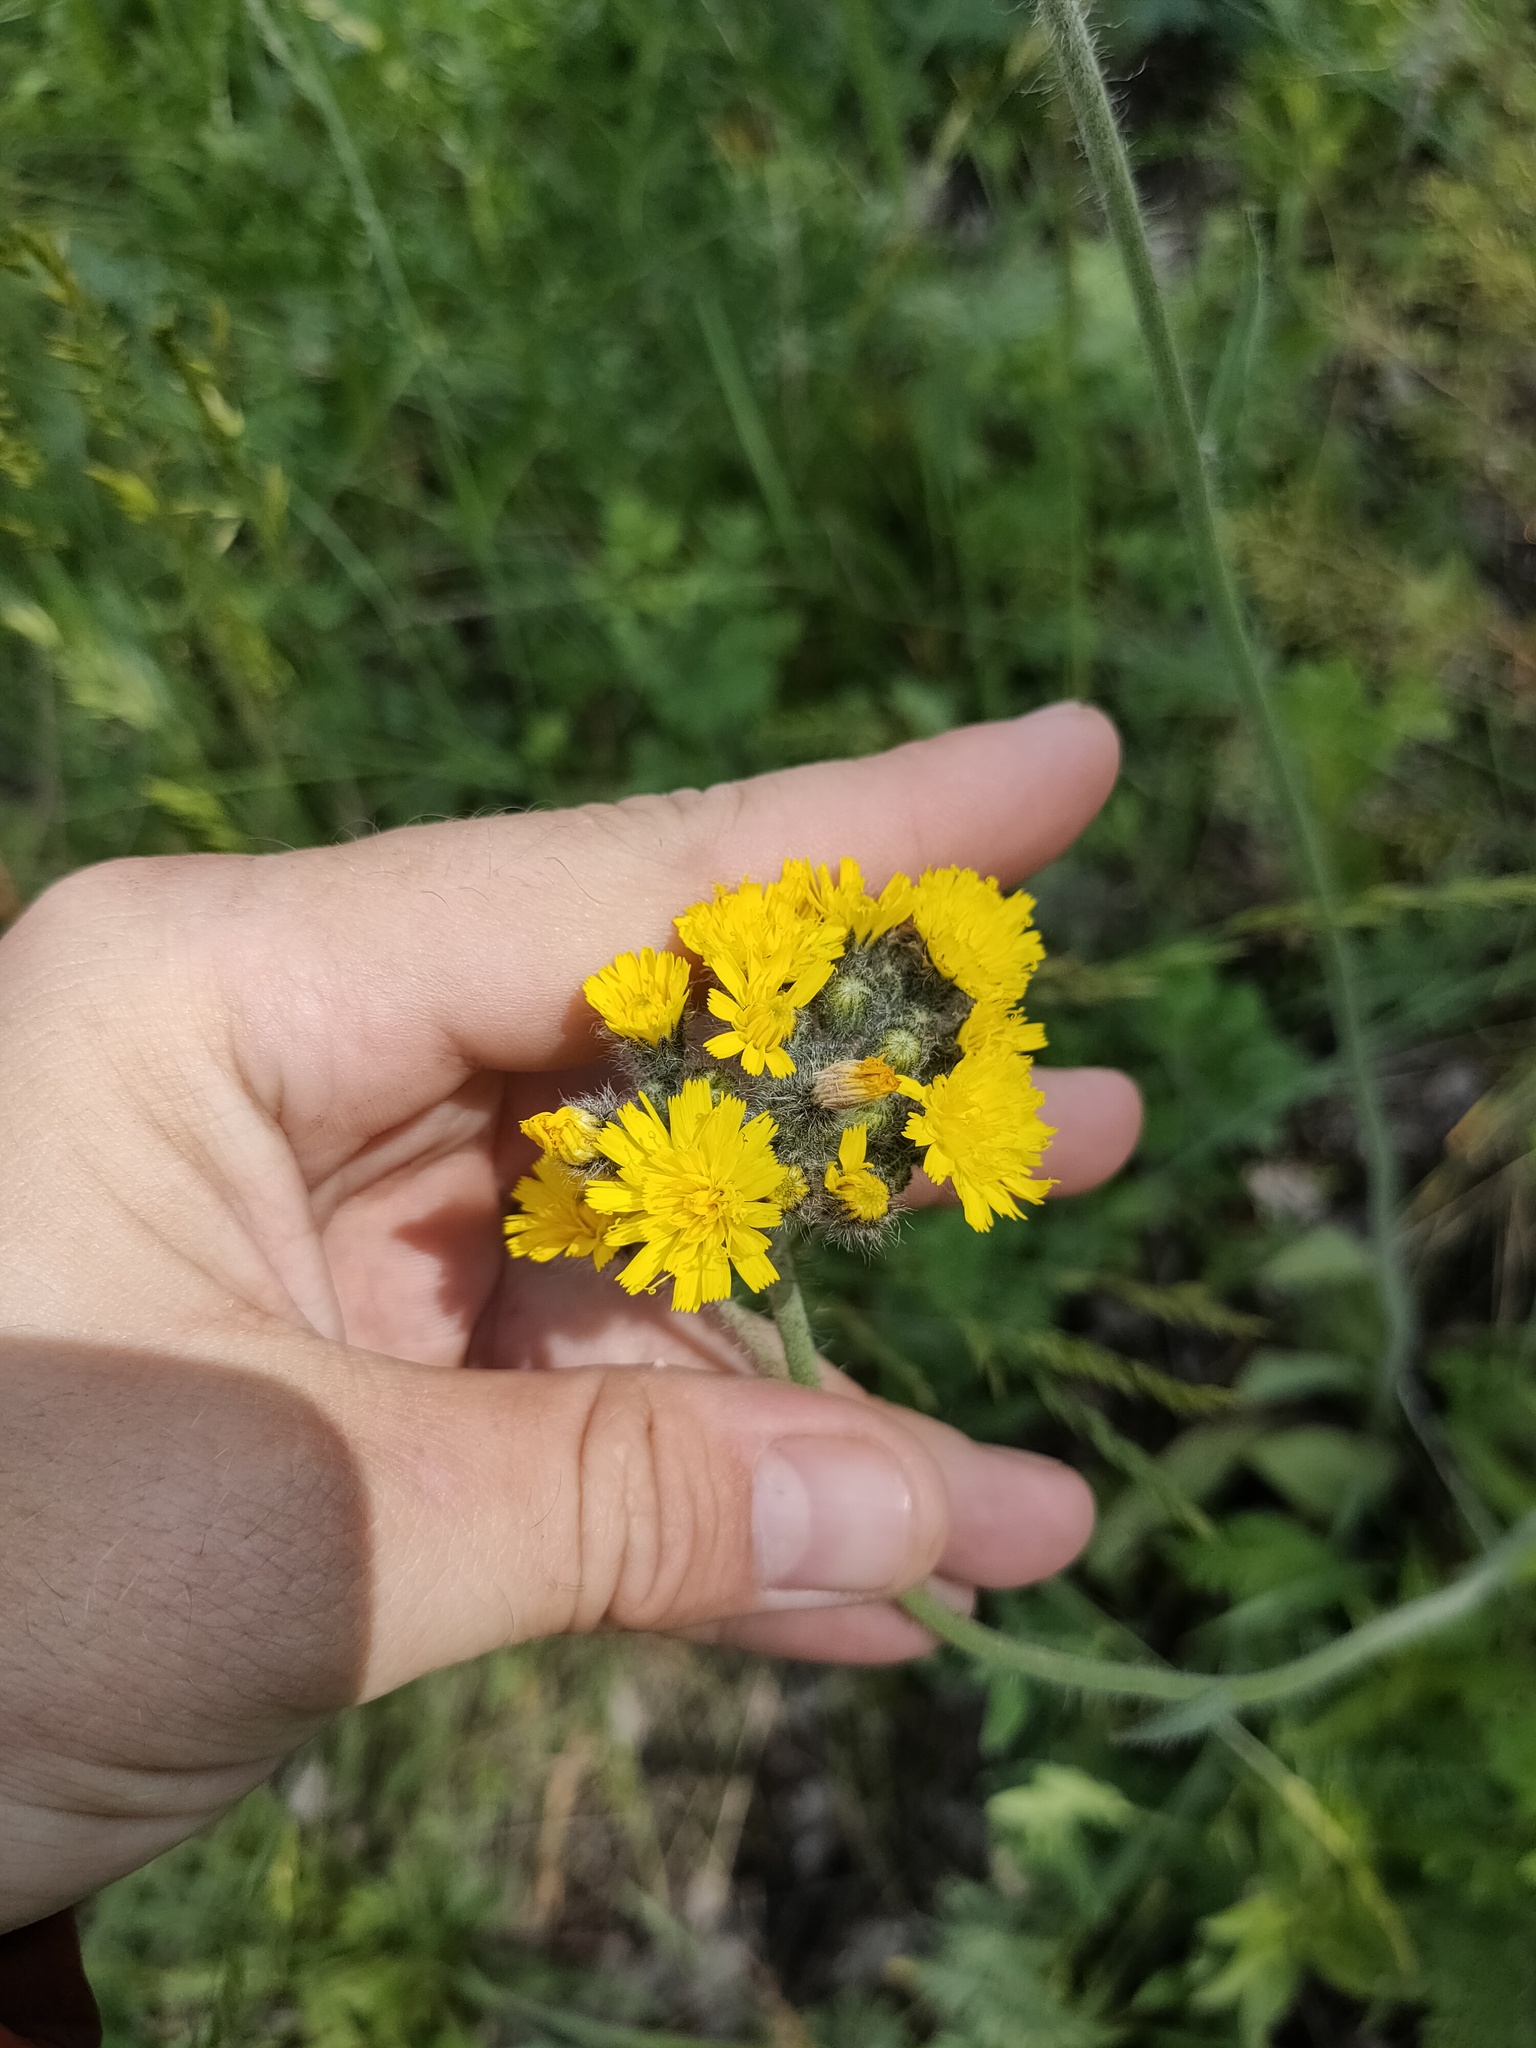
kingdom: Plantae
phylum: Tracheophyta
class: Magnoliopsida
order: Asterales
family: Asteraceae
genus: Pilosella
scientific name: Pilosella
